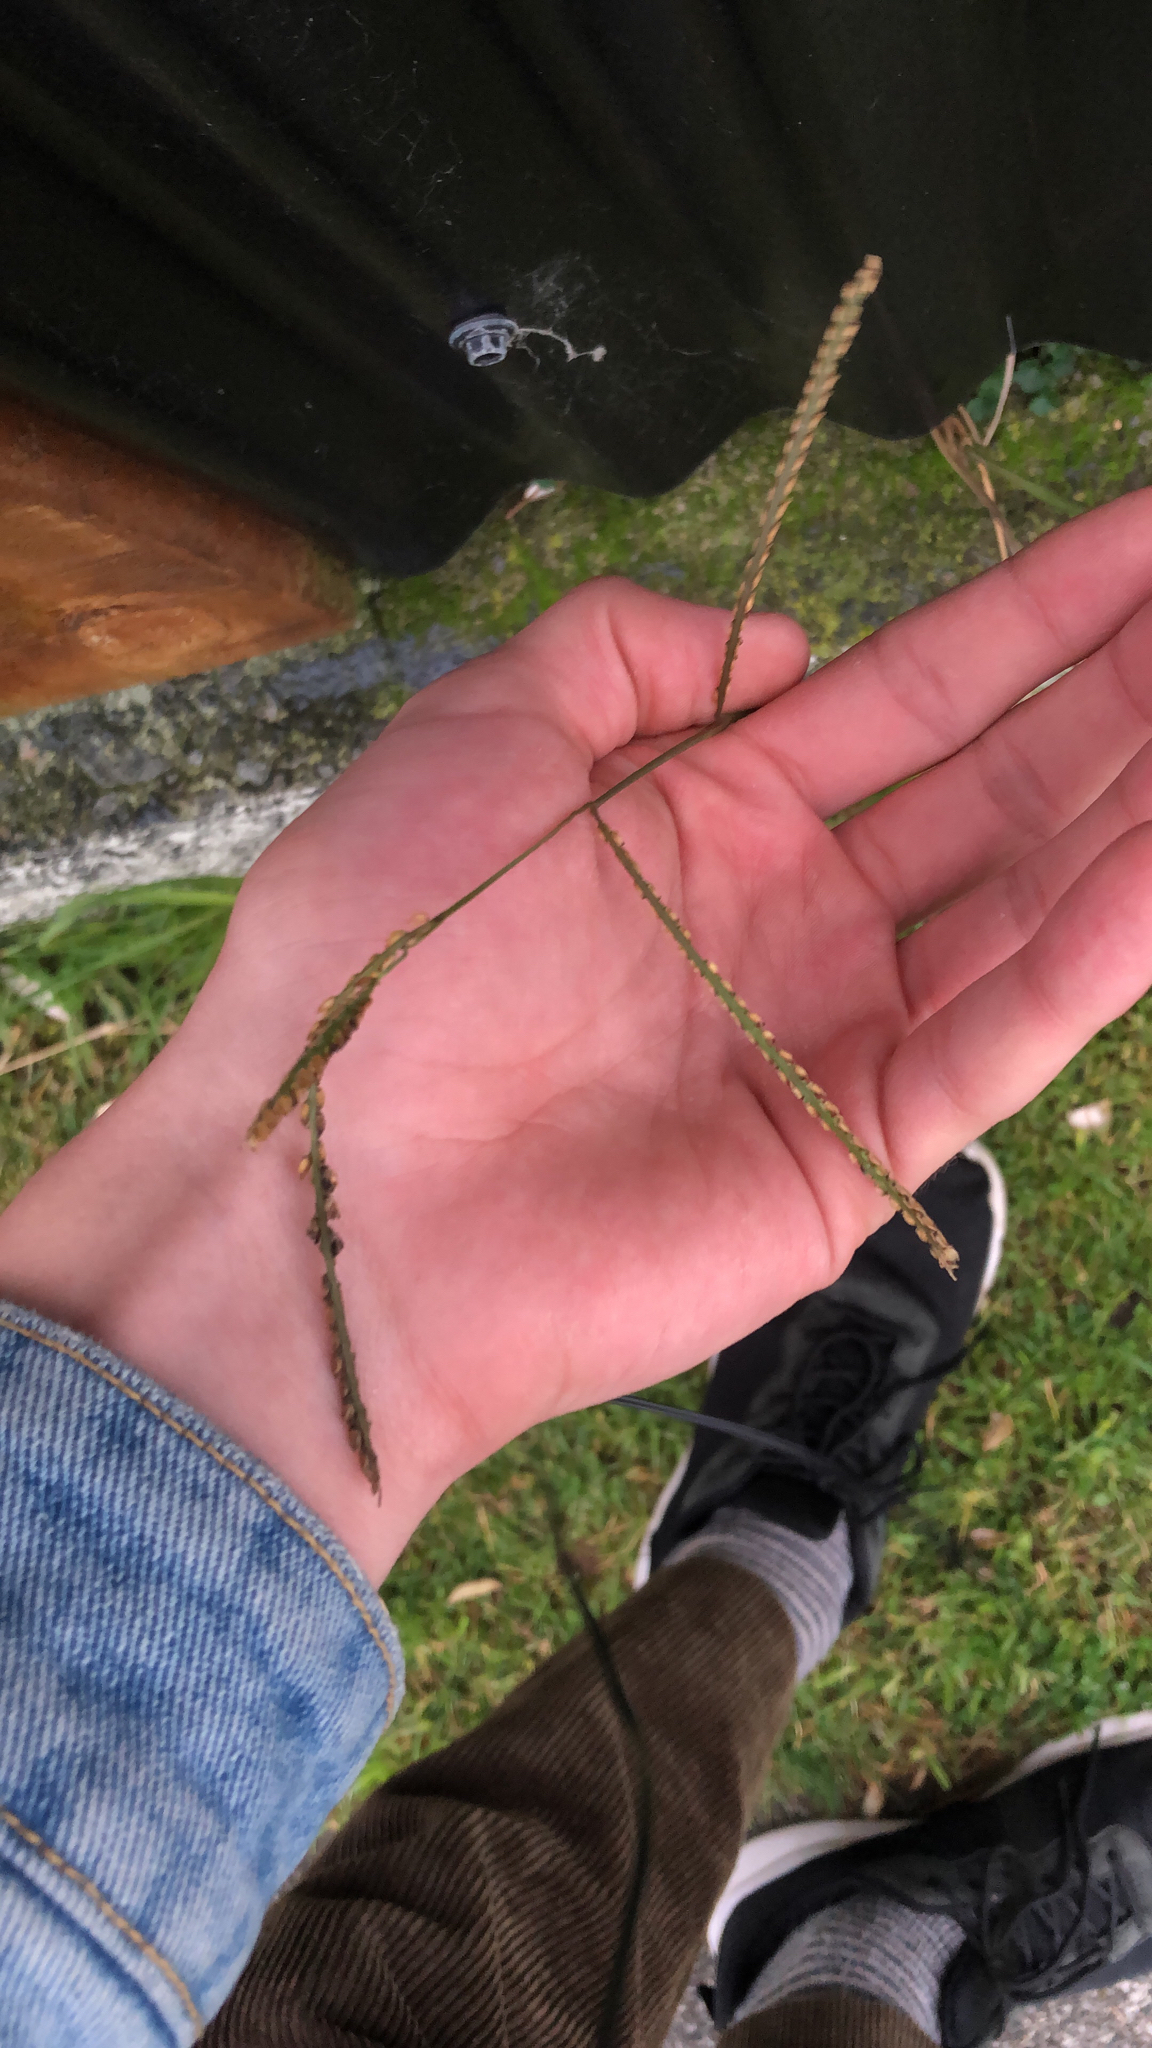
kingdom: Plantae
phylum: Tracheophyta
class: Liliopsida
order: Poales
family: Poaceae
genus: Paspalum
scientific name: Paspalum dilatatum
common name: Dallisgrass
